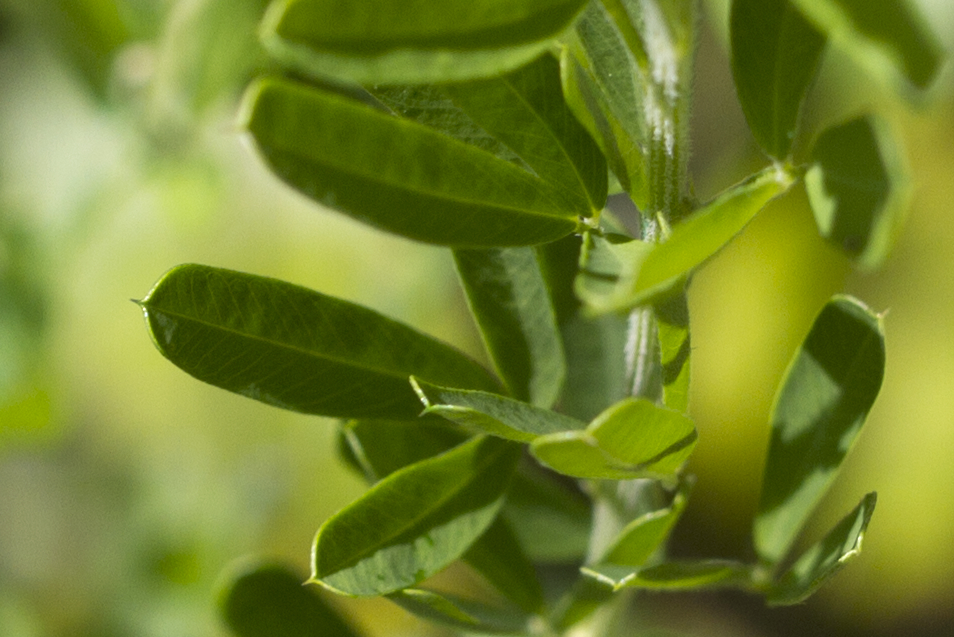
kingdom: Plantae
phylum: Tracheophyta
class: Magnoliopsida
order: Fabales
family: Fabaceae
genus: Lespedeza
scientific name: Lespedeza cuneata
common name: Chinese bush-clover
